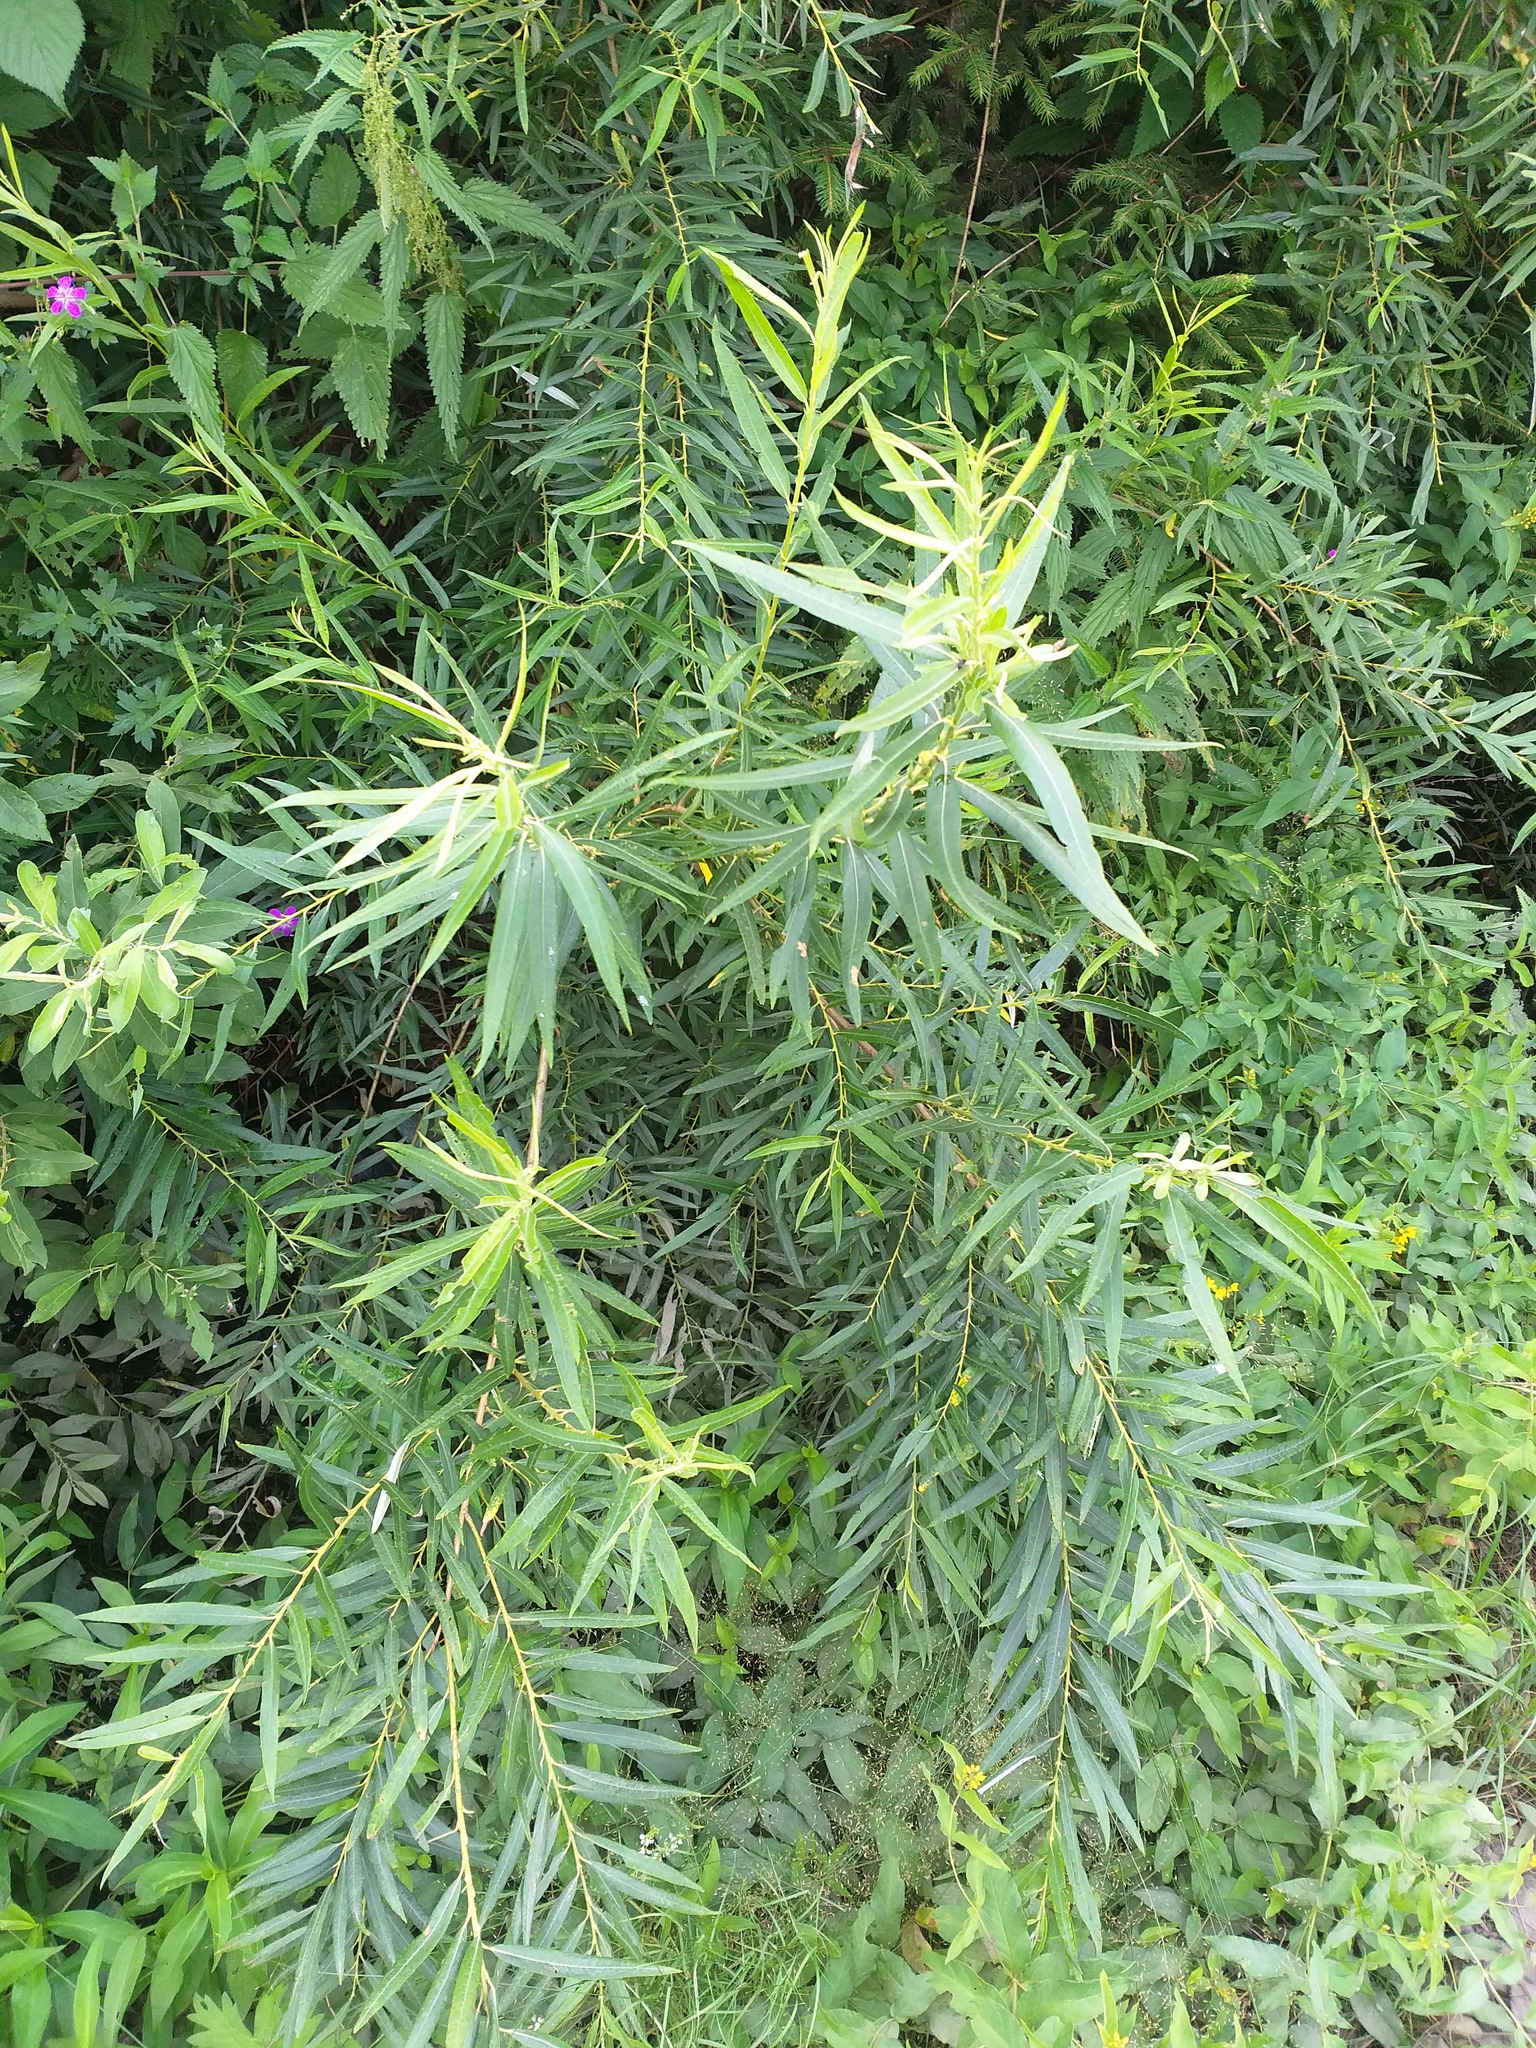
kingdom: Plantae
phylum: Tracheophyta
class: Magnoliopsida
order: Malpighiales
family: Salicaceae
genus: Salix
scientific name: Salix viminalis
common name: Osier
